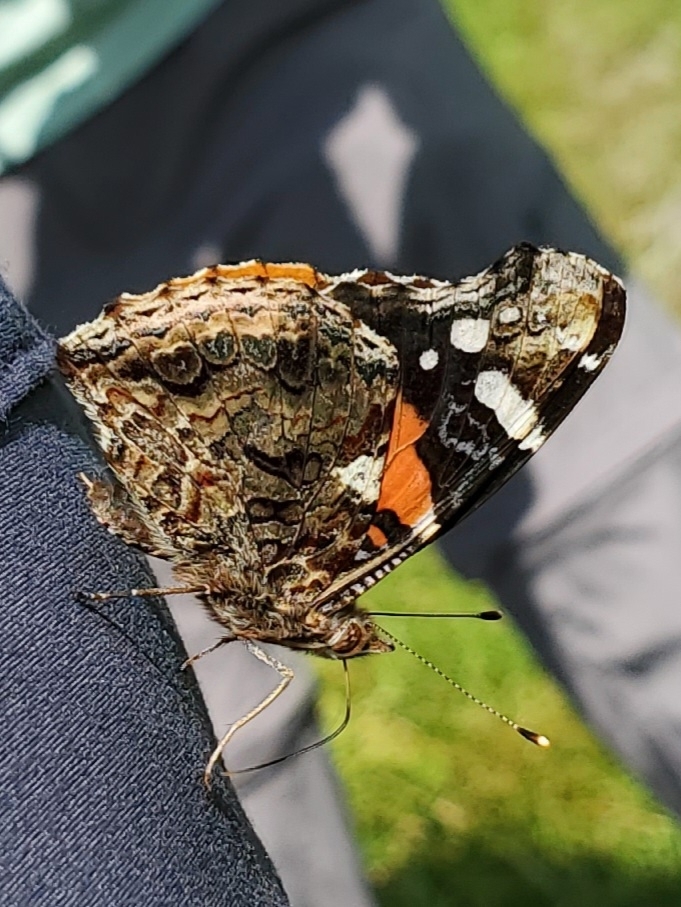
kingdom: Animalia
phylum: Arthropoda
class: Insecta
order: Lepidoptera
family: Nymphalidae
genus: Vanessa
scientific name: Vanessa atalanta
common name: Red admiral
